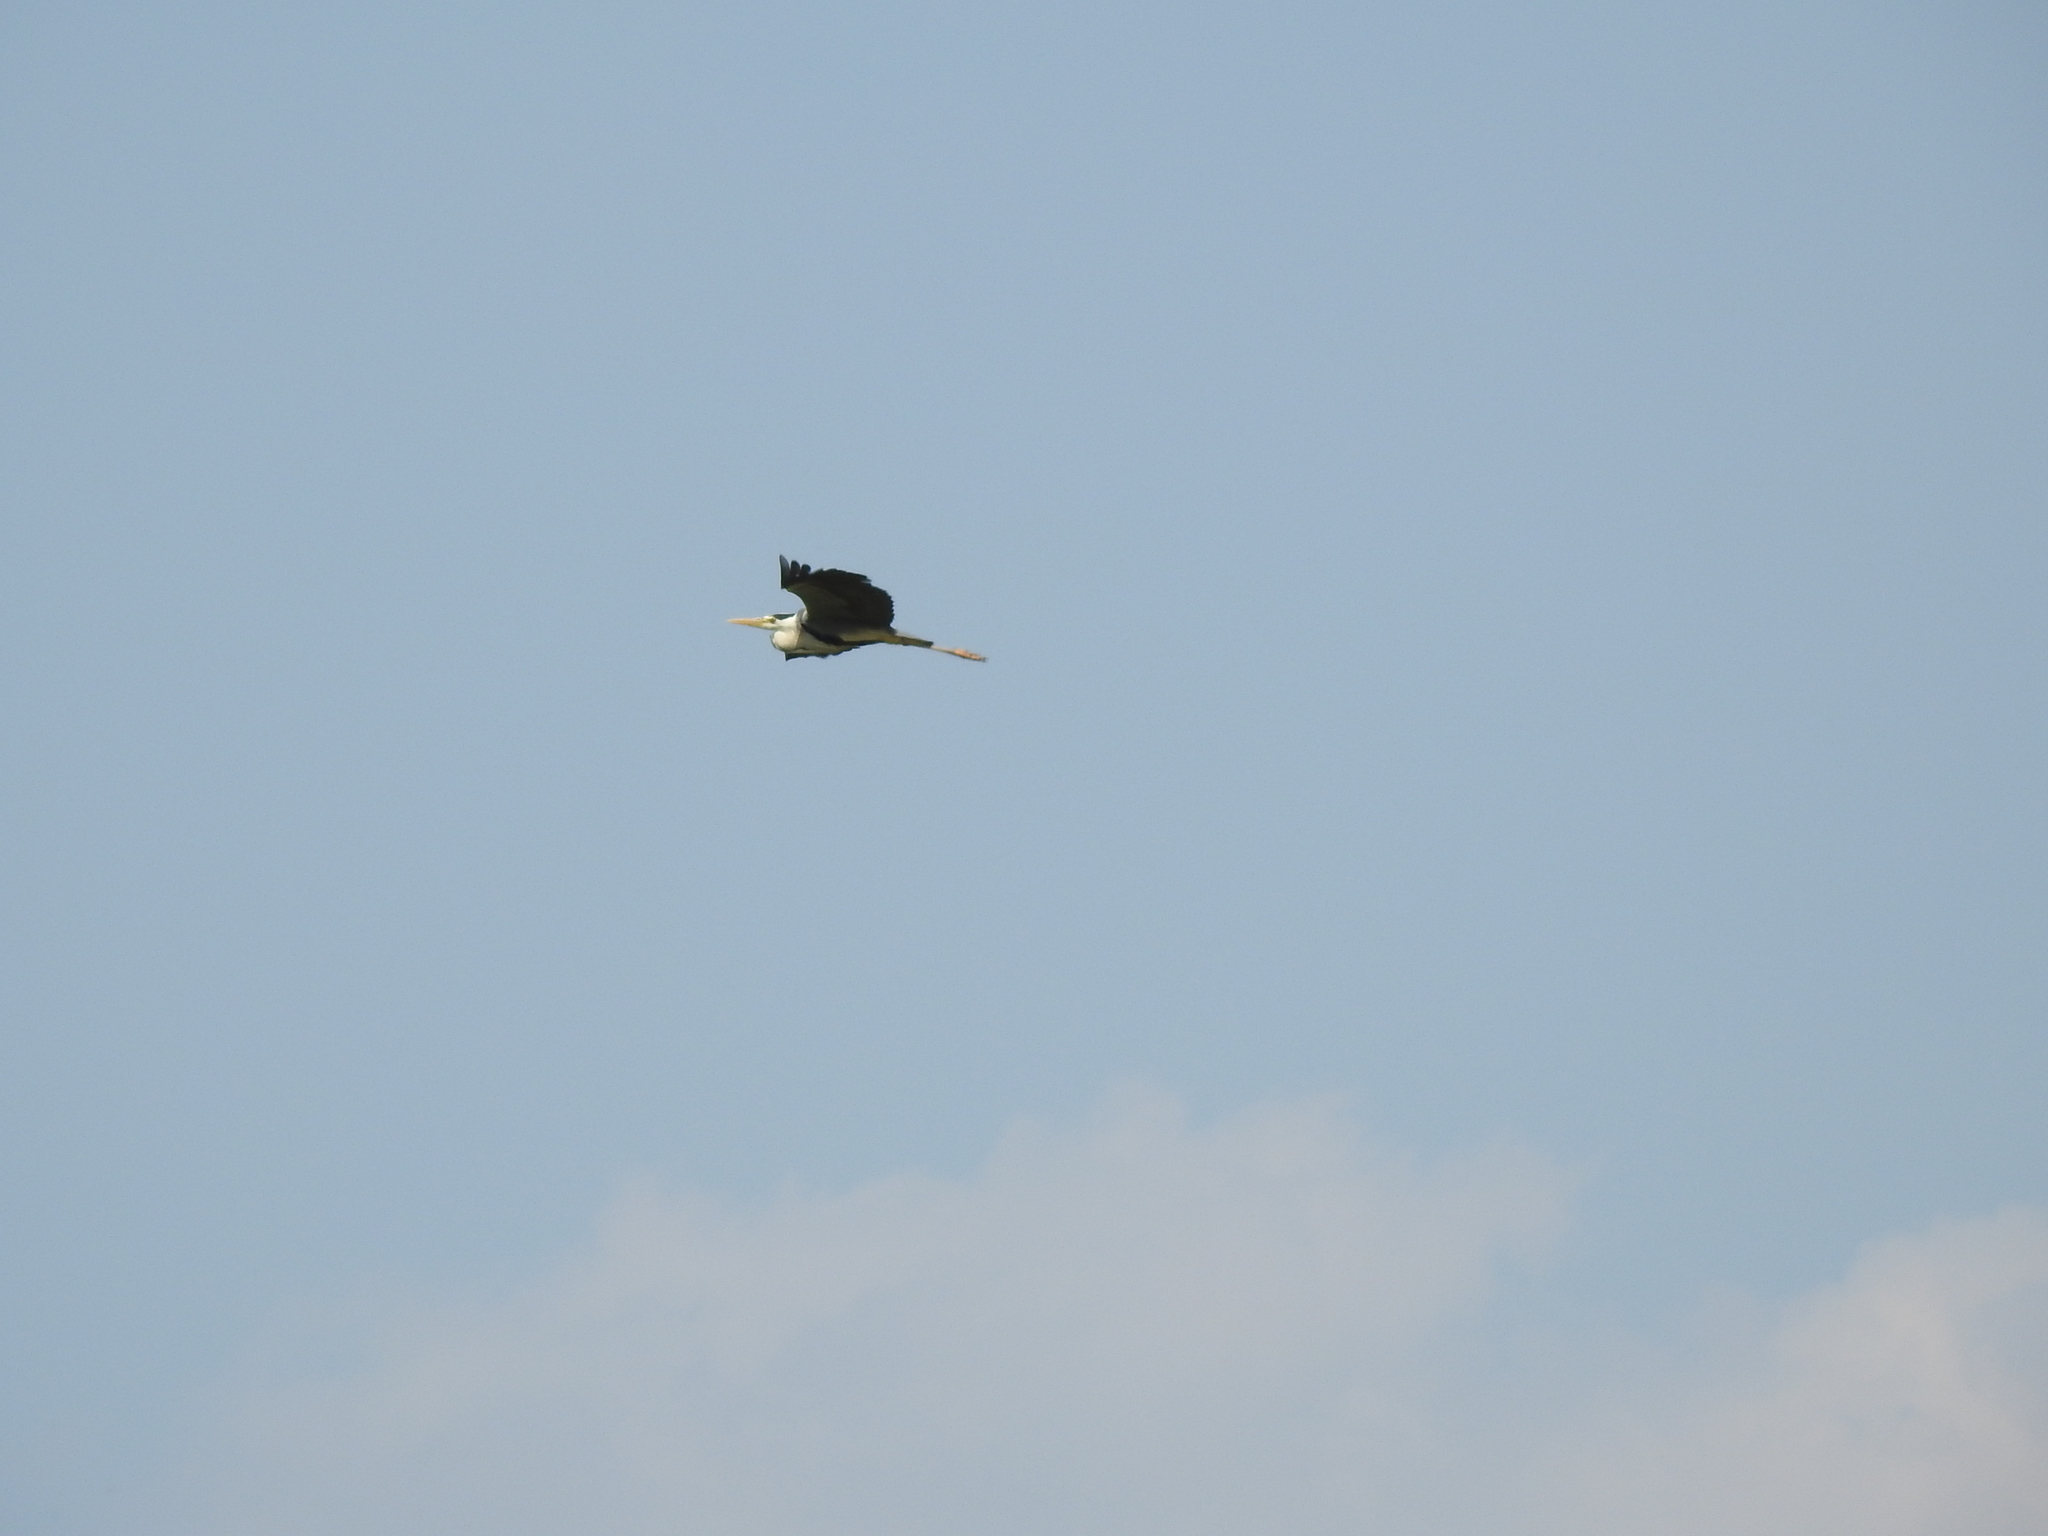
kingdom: Animalia
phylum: Chordata
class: Aves
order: Pelecaniformes
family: Ardeidae
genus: Ardea
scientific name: Ardea cinerea
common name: Grey heron
